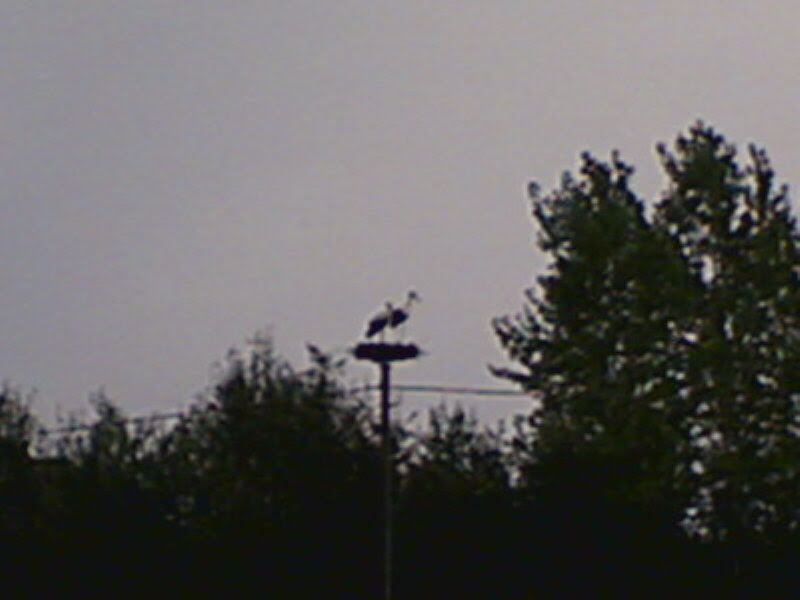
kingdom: Animalia
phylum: Chordata
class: Aves
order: Ciconiiformes
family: Ciconiidae
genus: Ciconia
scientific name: Ciconia ciconia
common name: White stork
